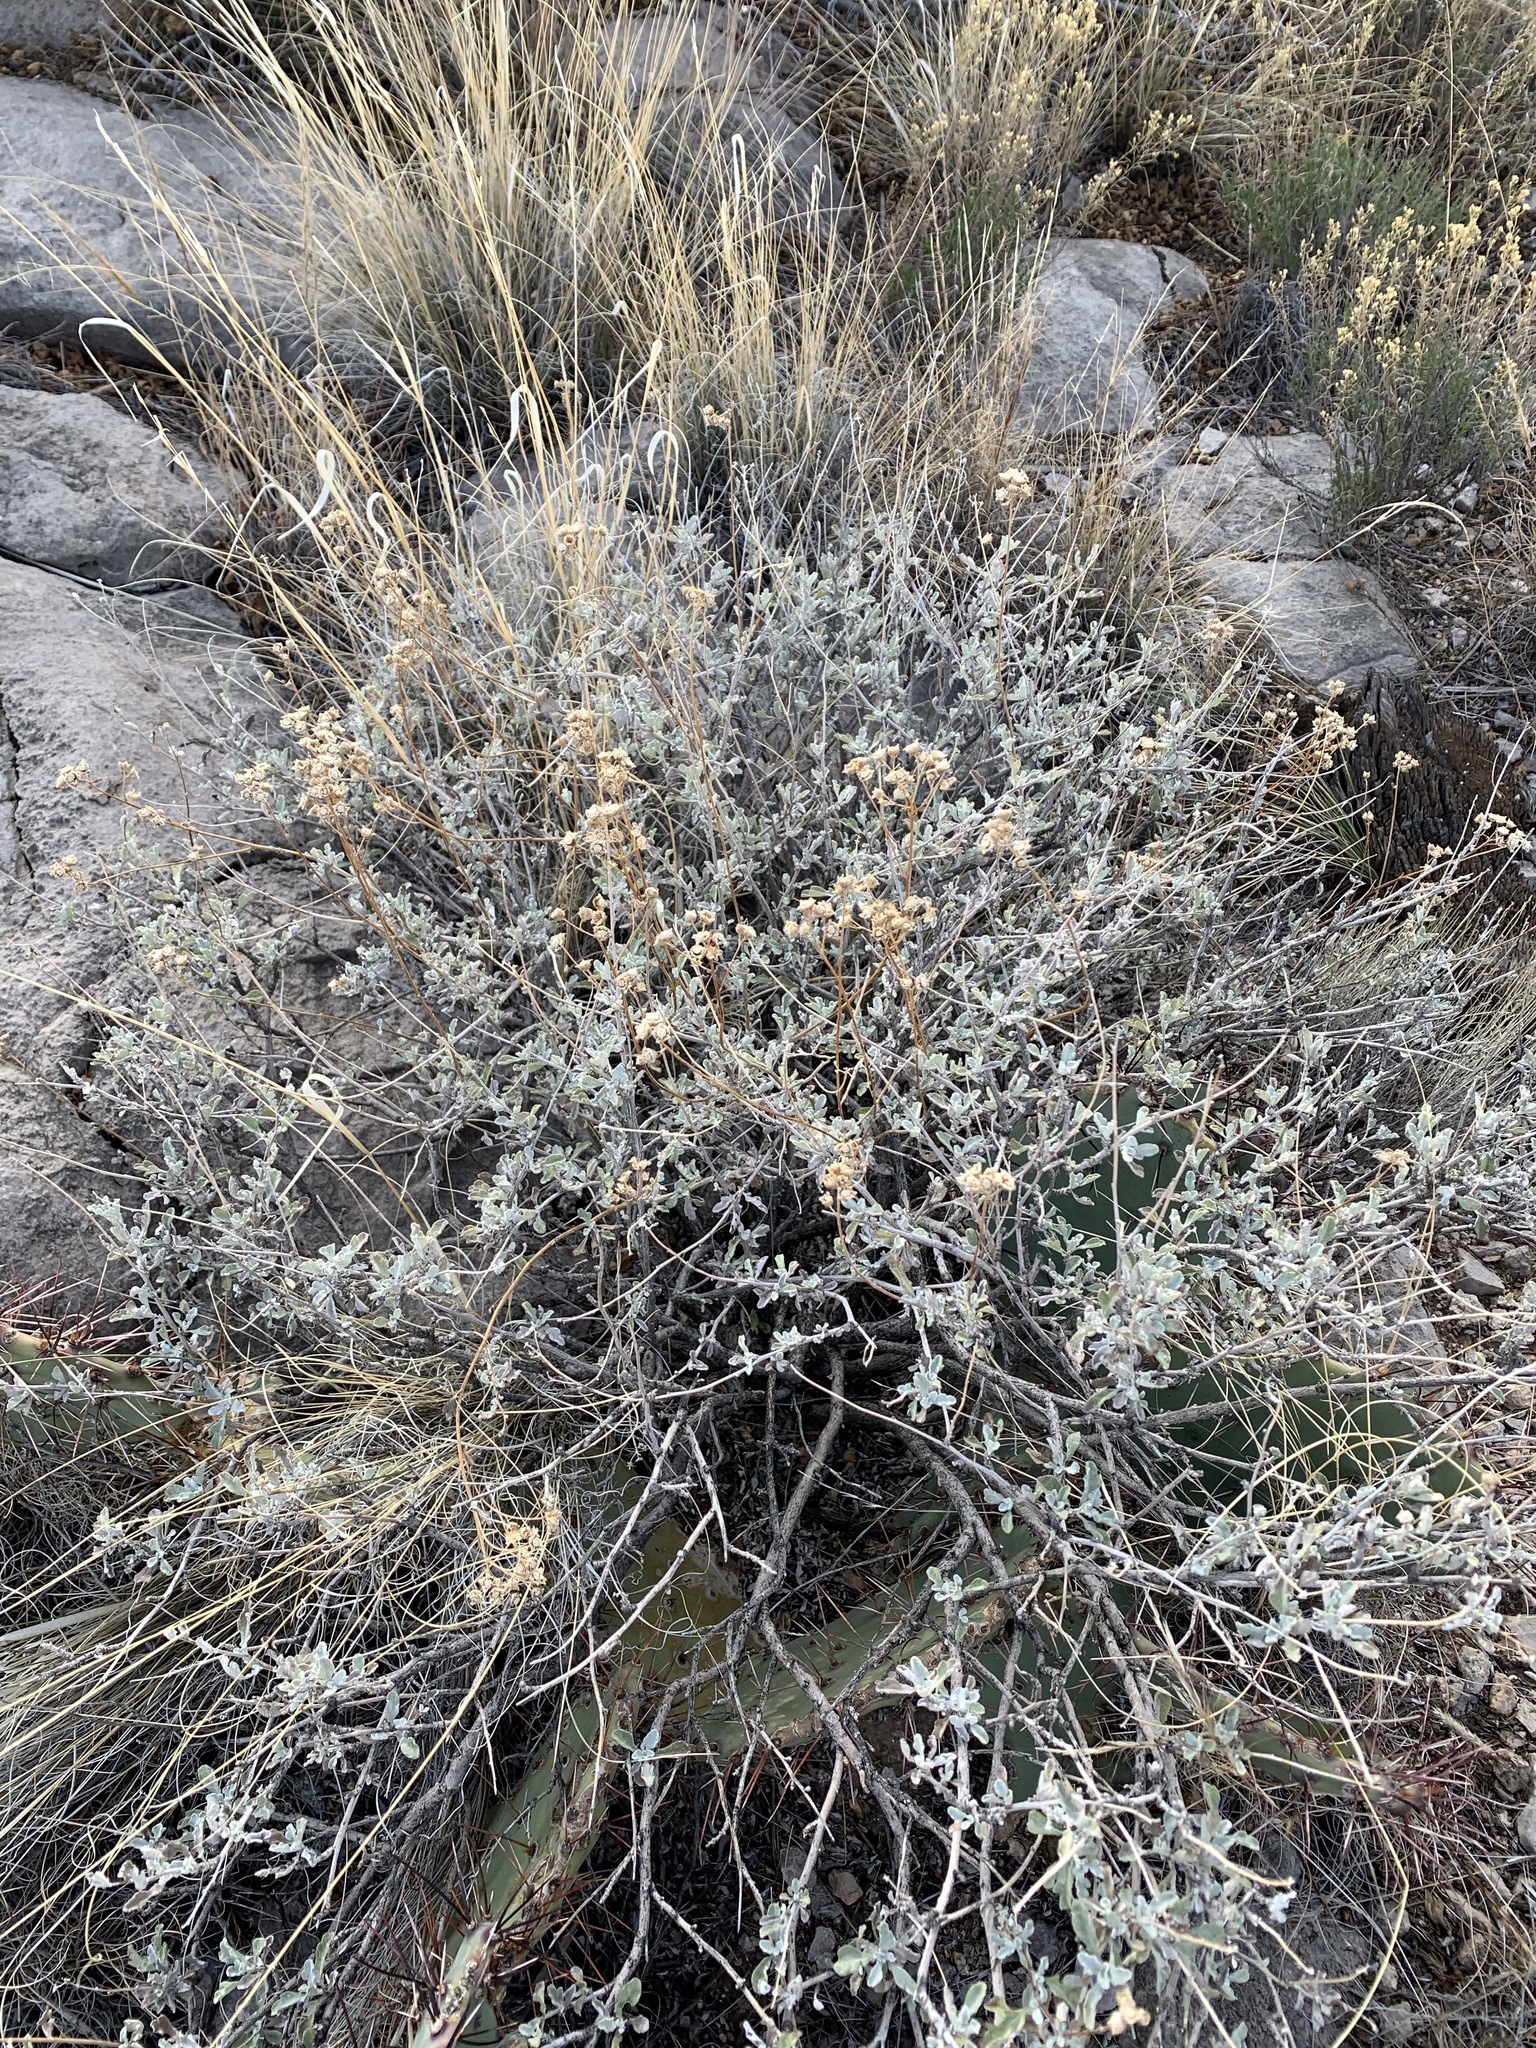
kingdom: Plantae
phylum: Tracheophyta
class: Magnoliopsida
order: Asterales
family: Asteraceae
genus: Parthenium
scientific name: Parthenium incanum
